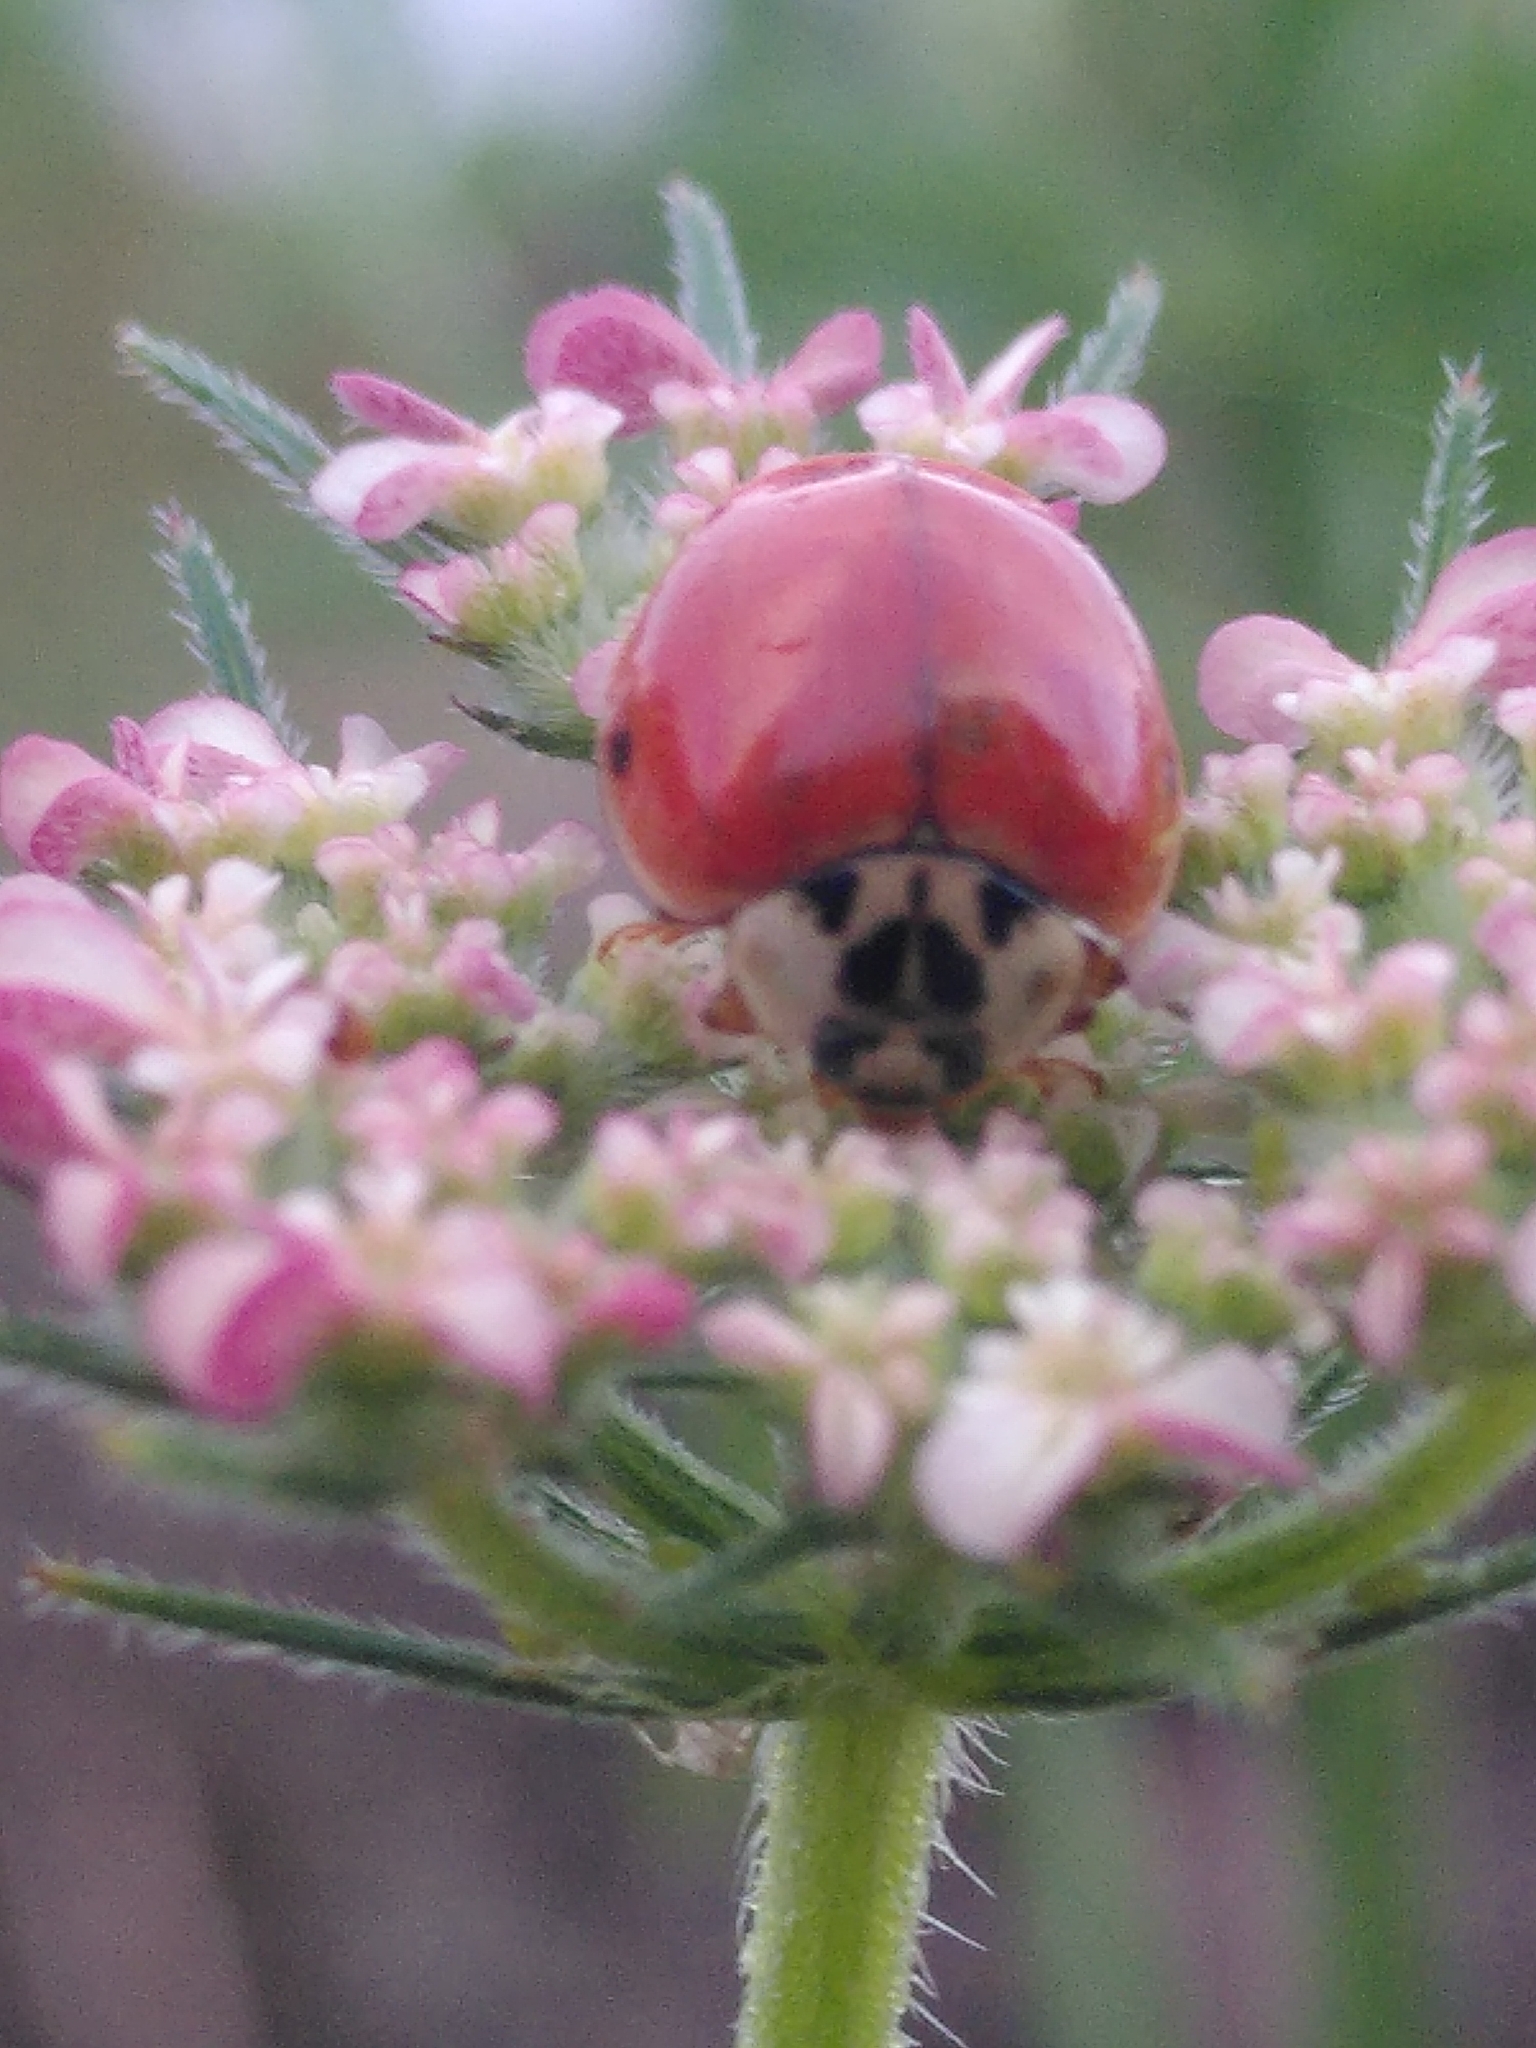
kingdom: Animalia
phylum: Arthropoda
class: Insecta
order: Coleoptera
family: Coccinellidae
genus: Harmonia
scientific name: Harmonia axyridis
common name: Harlequin ladybird
